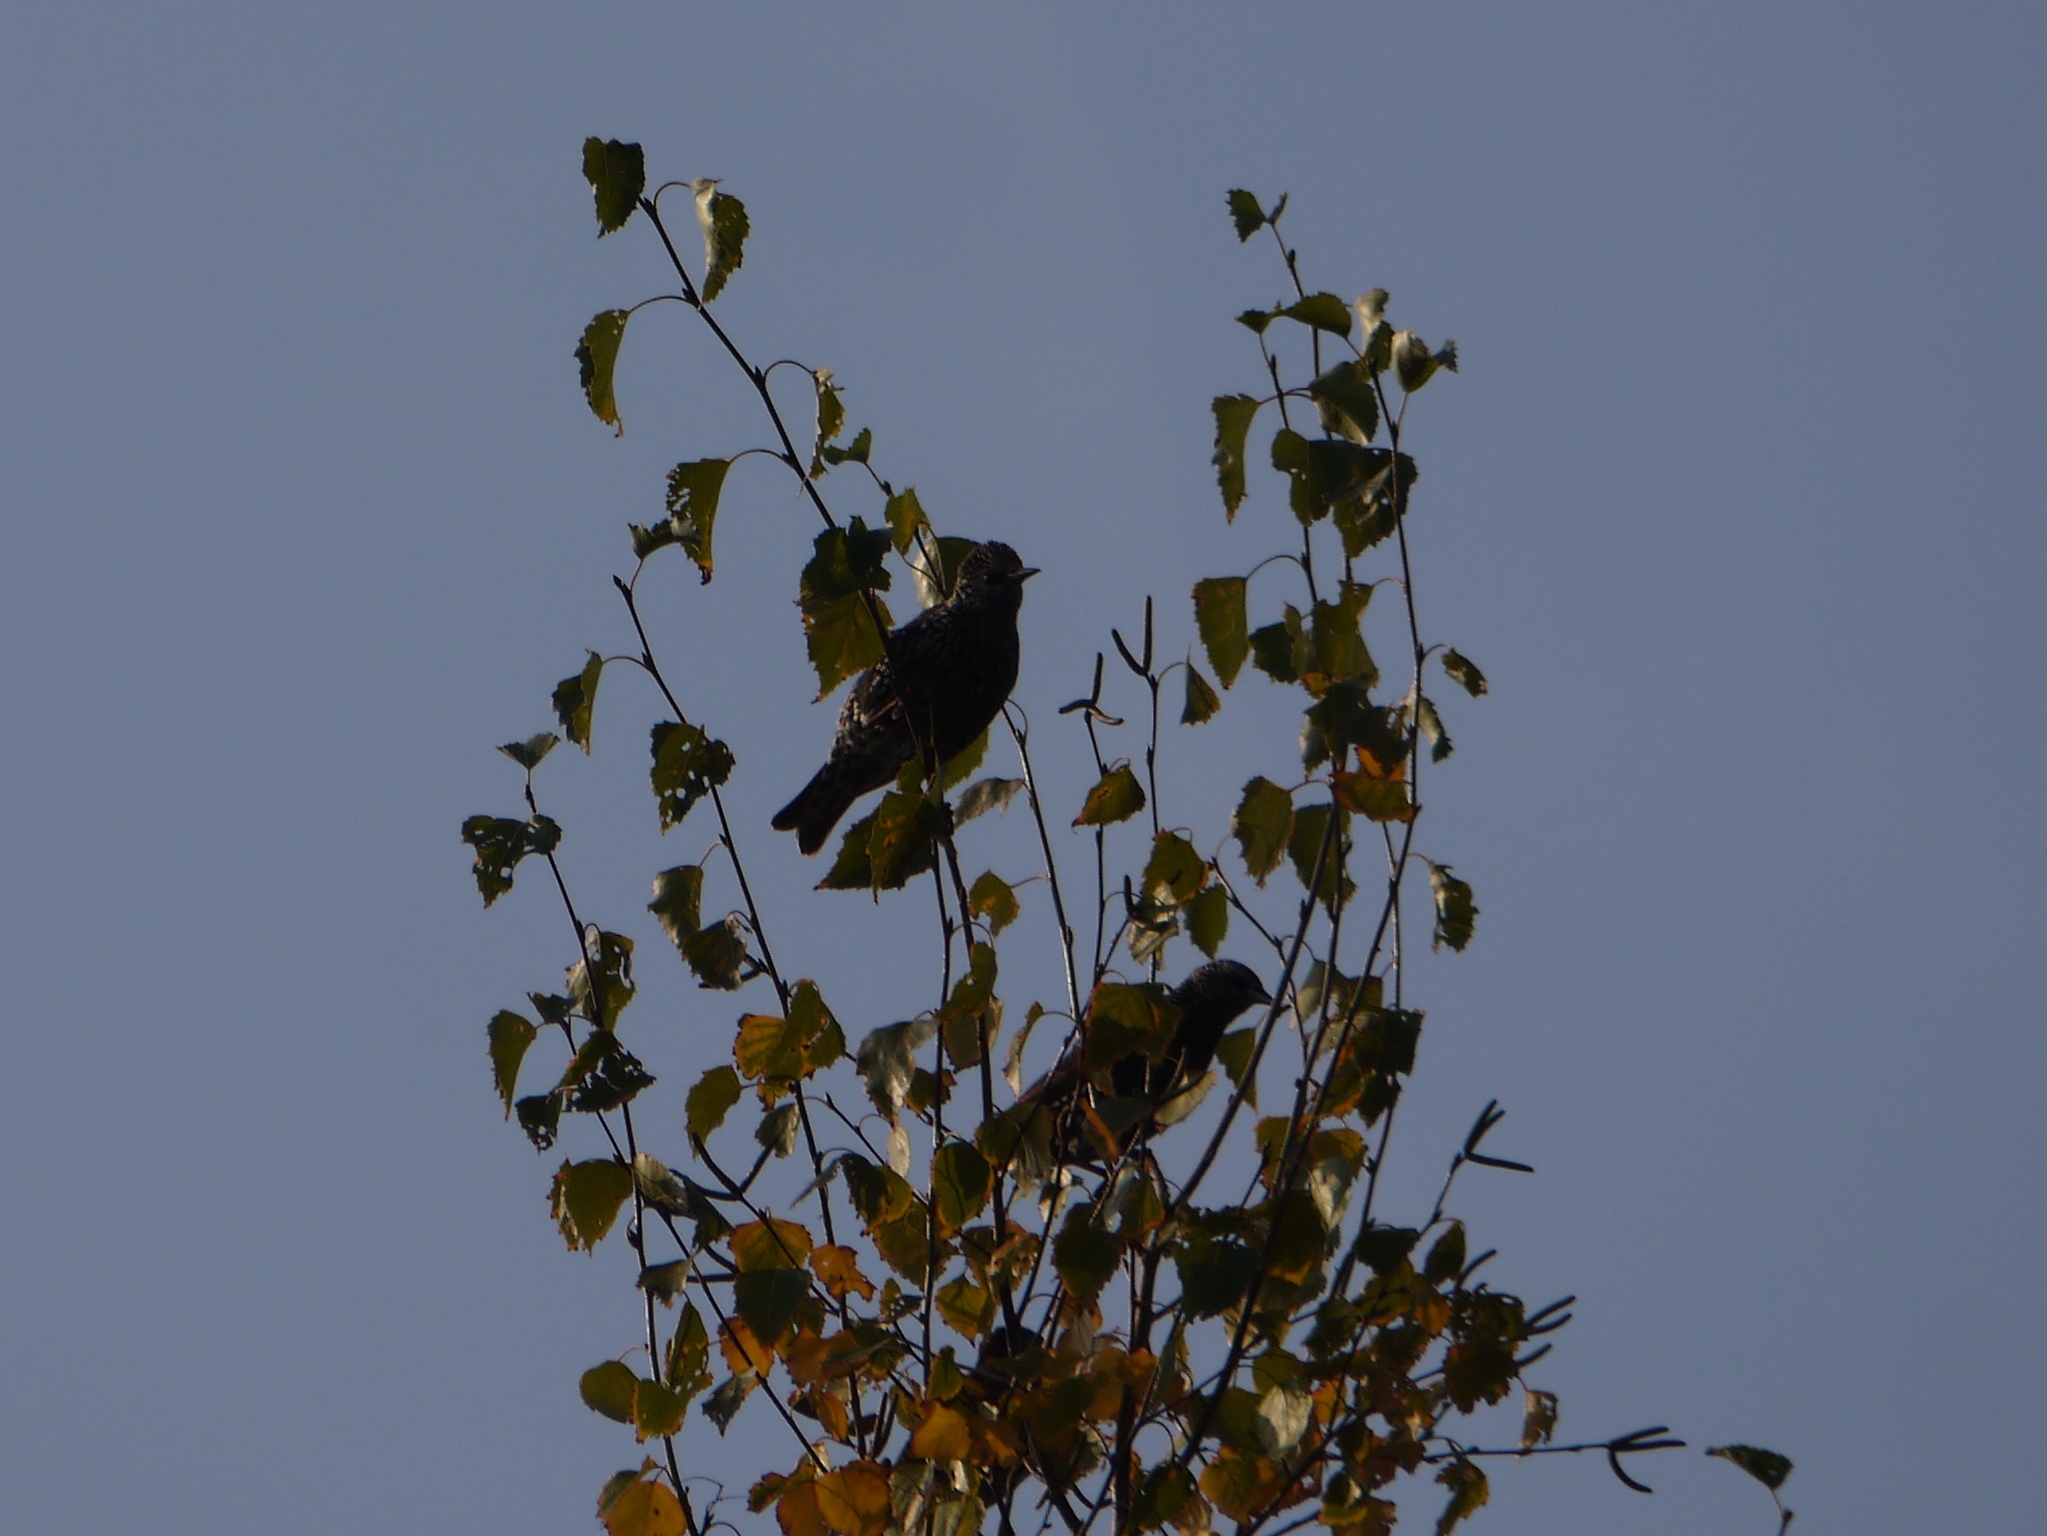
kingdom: Animalia
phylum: Chordata
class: Aves
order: Passeriformes
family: Sturnidae
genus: Sturnus
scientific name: Sturnus vulgaris
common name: Common starling
